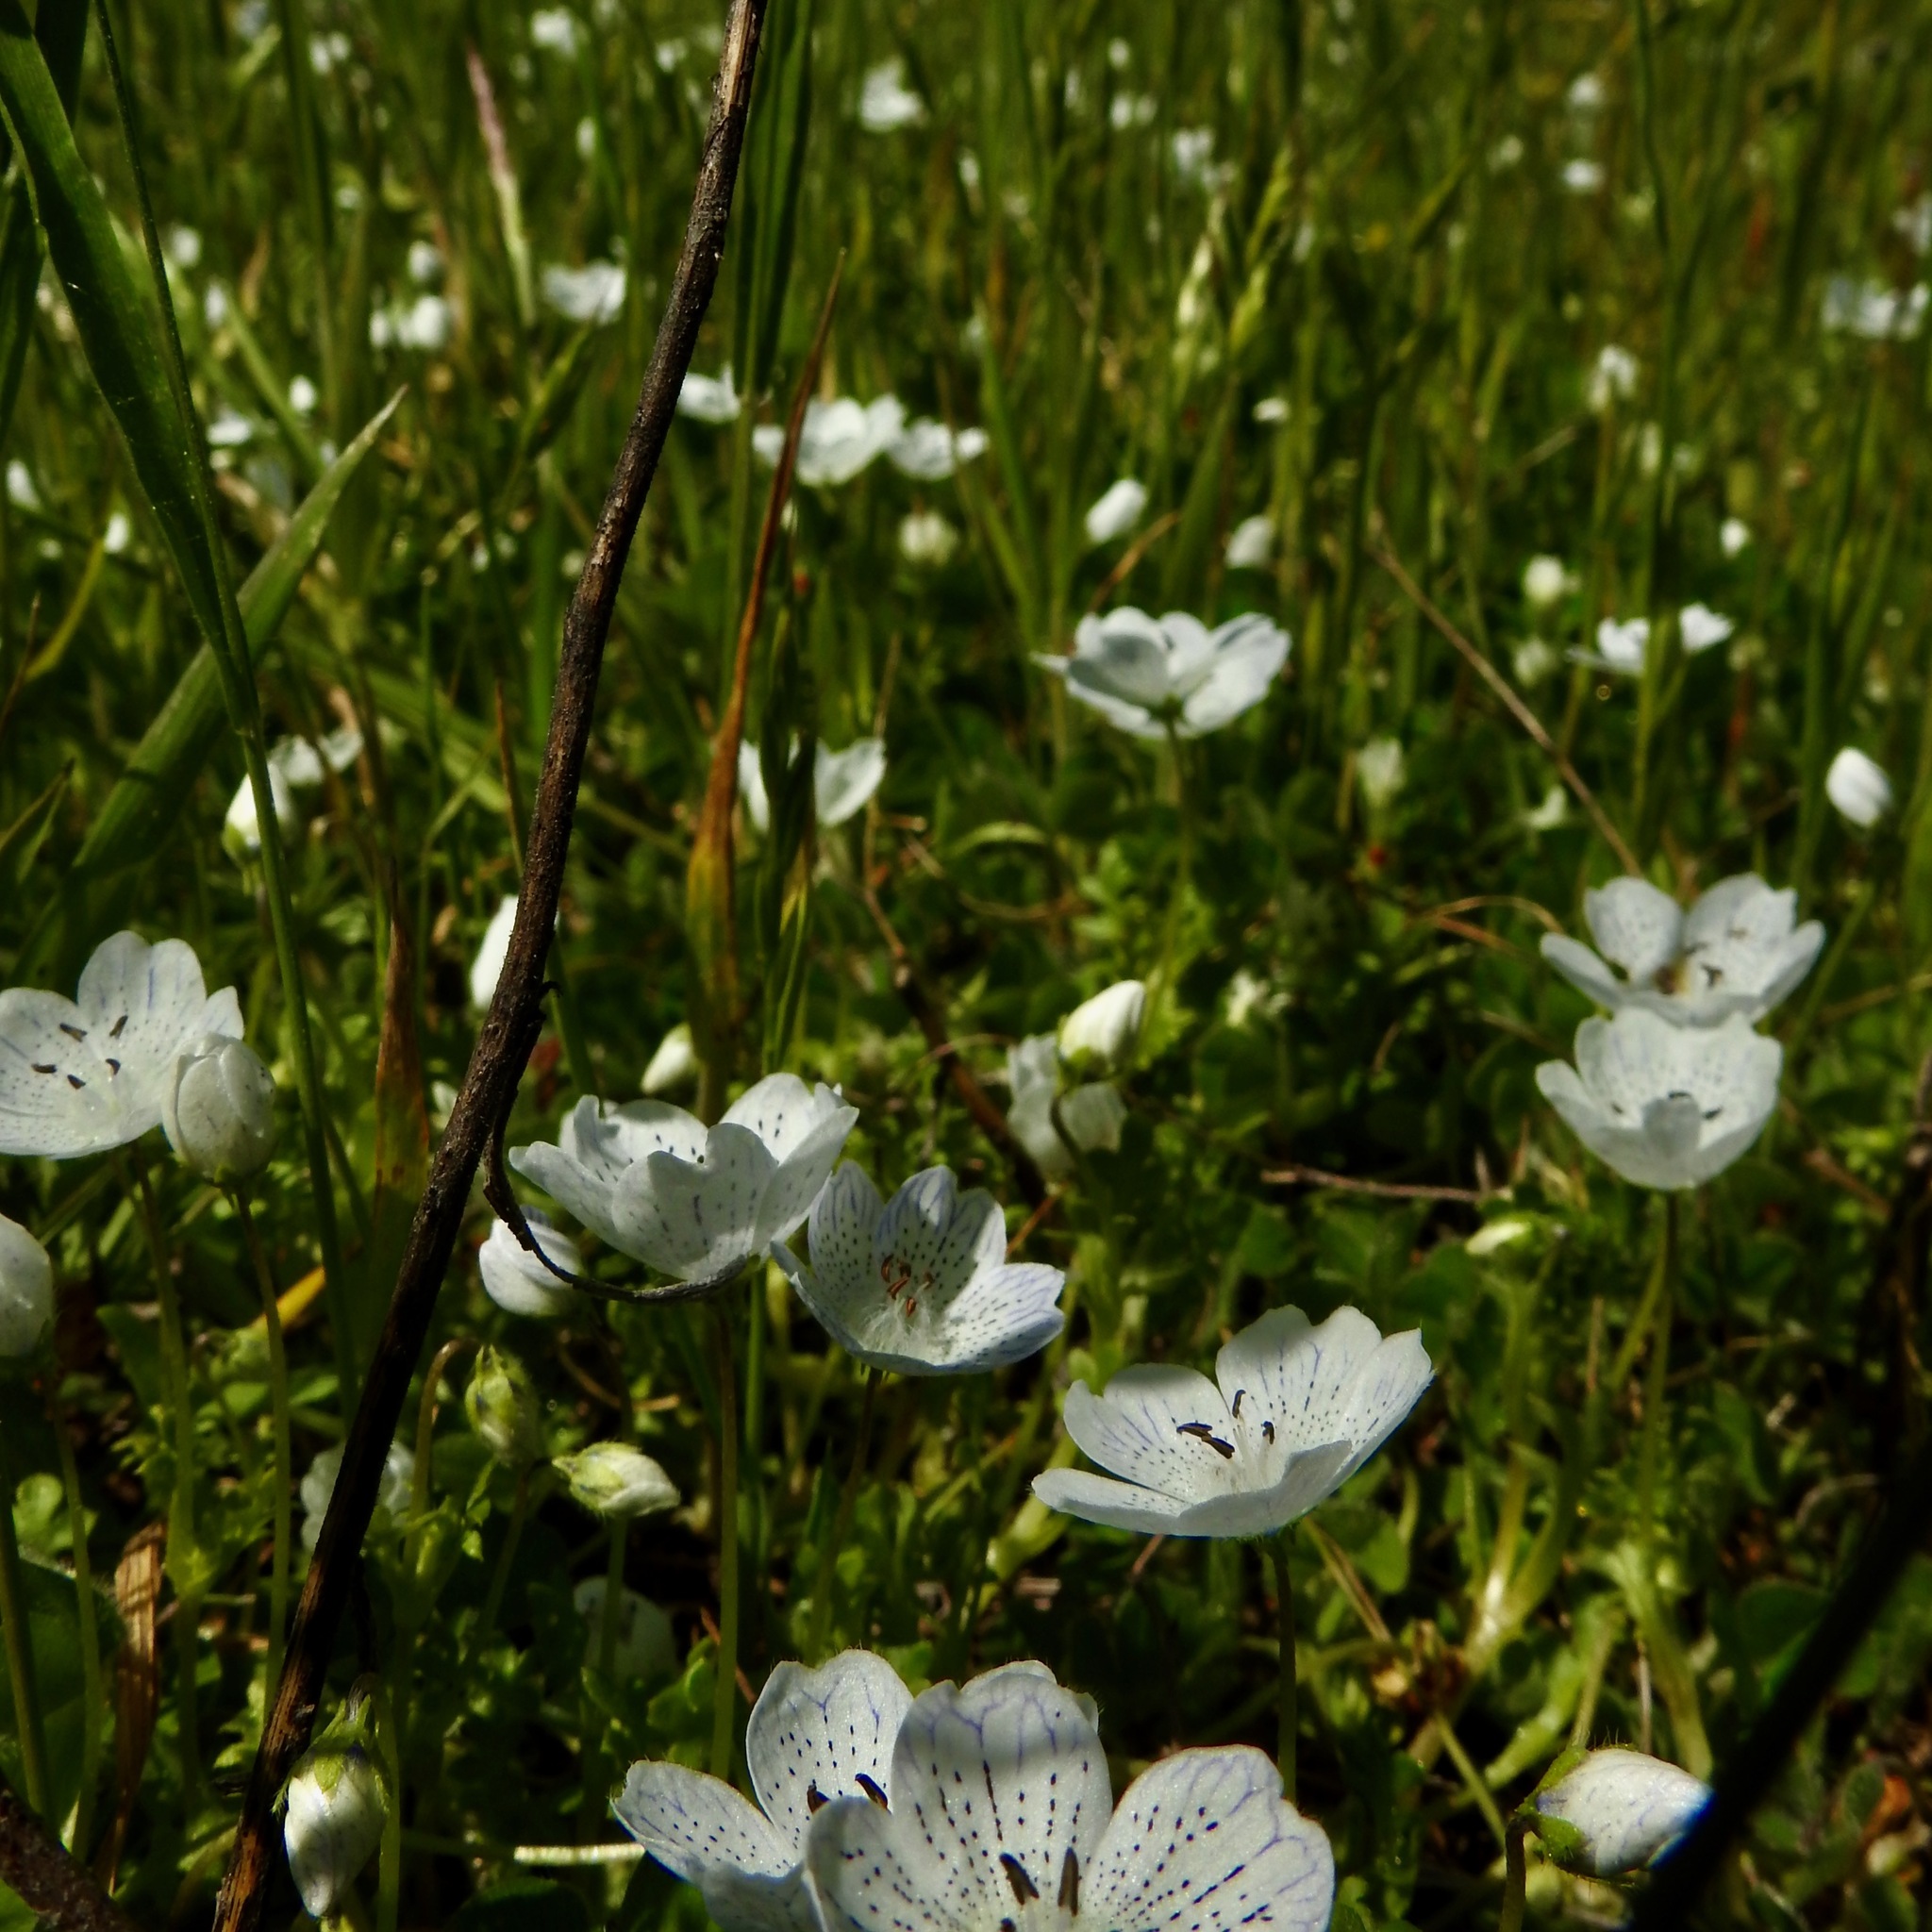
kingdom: Plantae
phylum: Tracheophyta
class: Magnoliopsida
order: Boraginales
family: Hydrophyllaceae
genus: Nemophila
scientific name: Nemophila menziesii
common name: Baby's-blue-eyes
